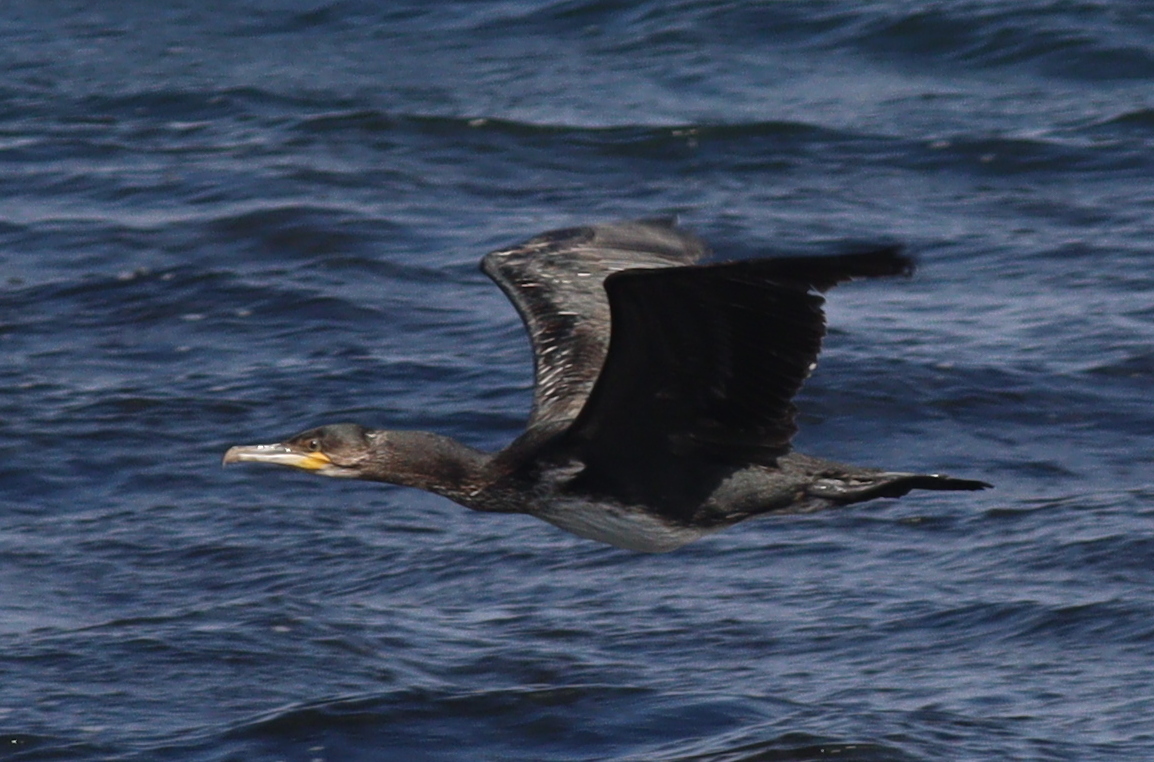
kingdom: Animalia
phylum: Chordata
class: Aves
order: Suliformes
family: Phalacrocoracidae
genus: Phalacrocorax
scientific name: Phalacrocorax carbo
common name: Great cormorant
